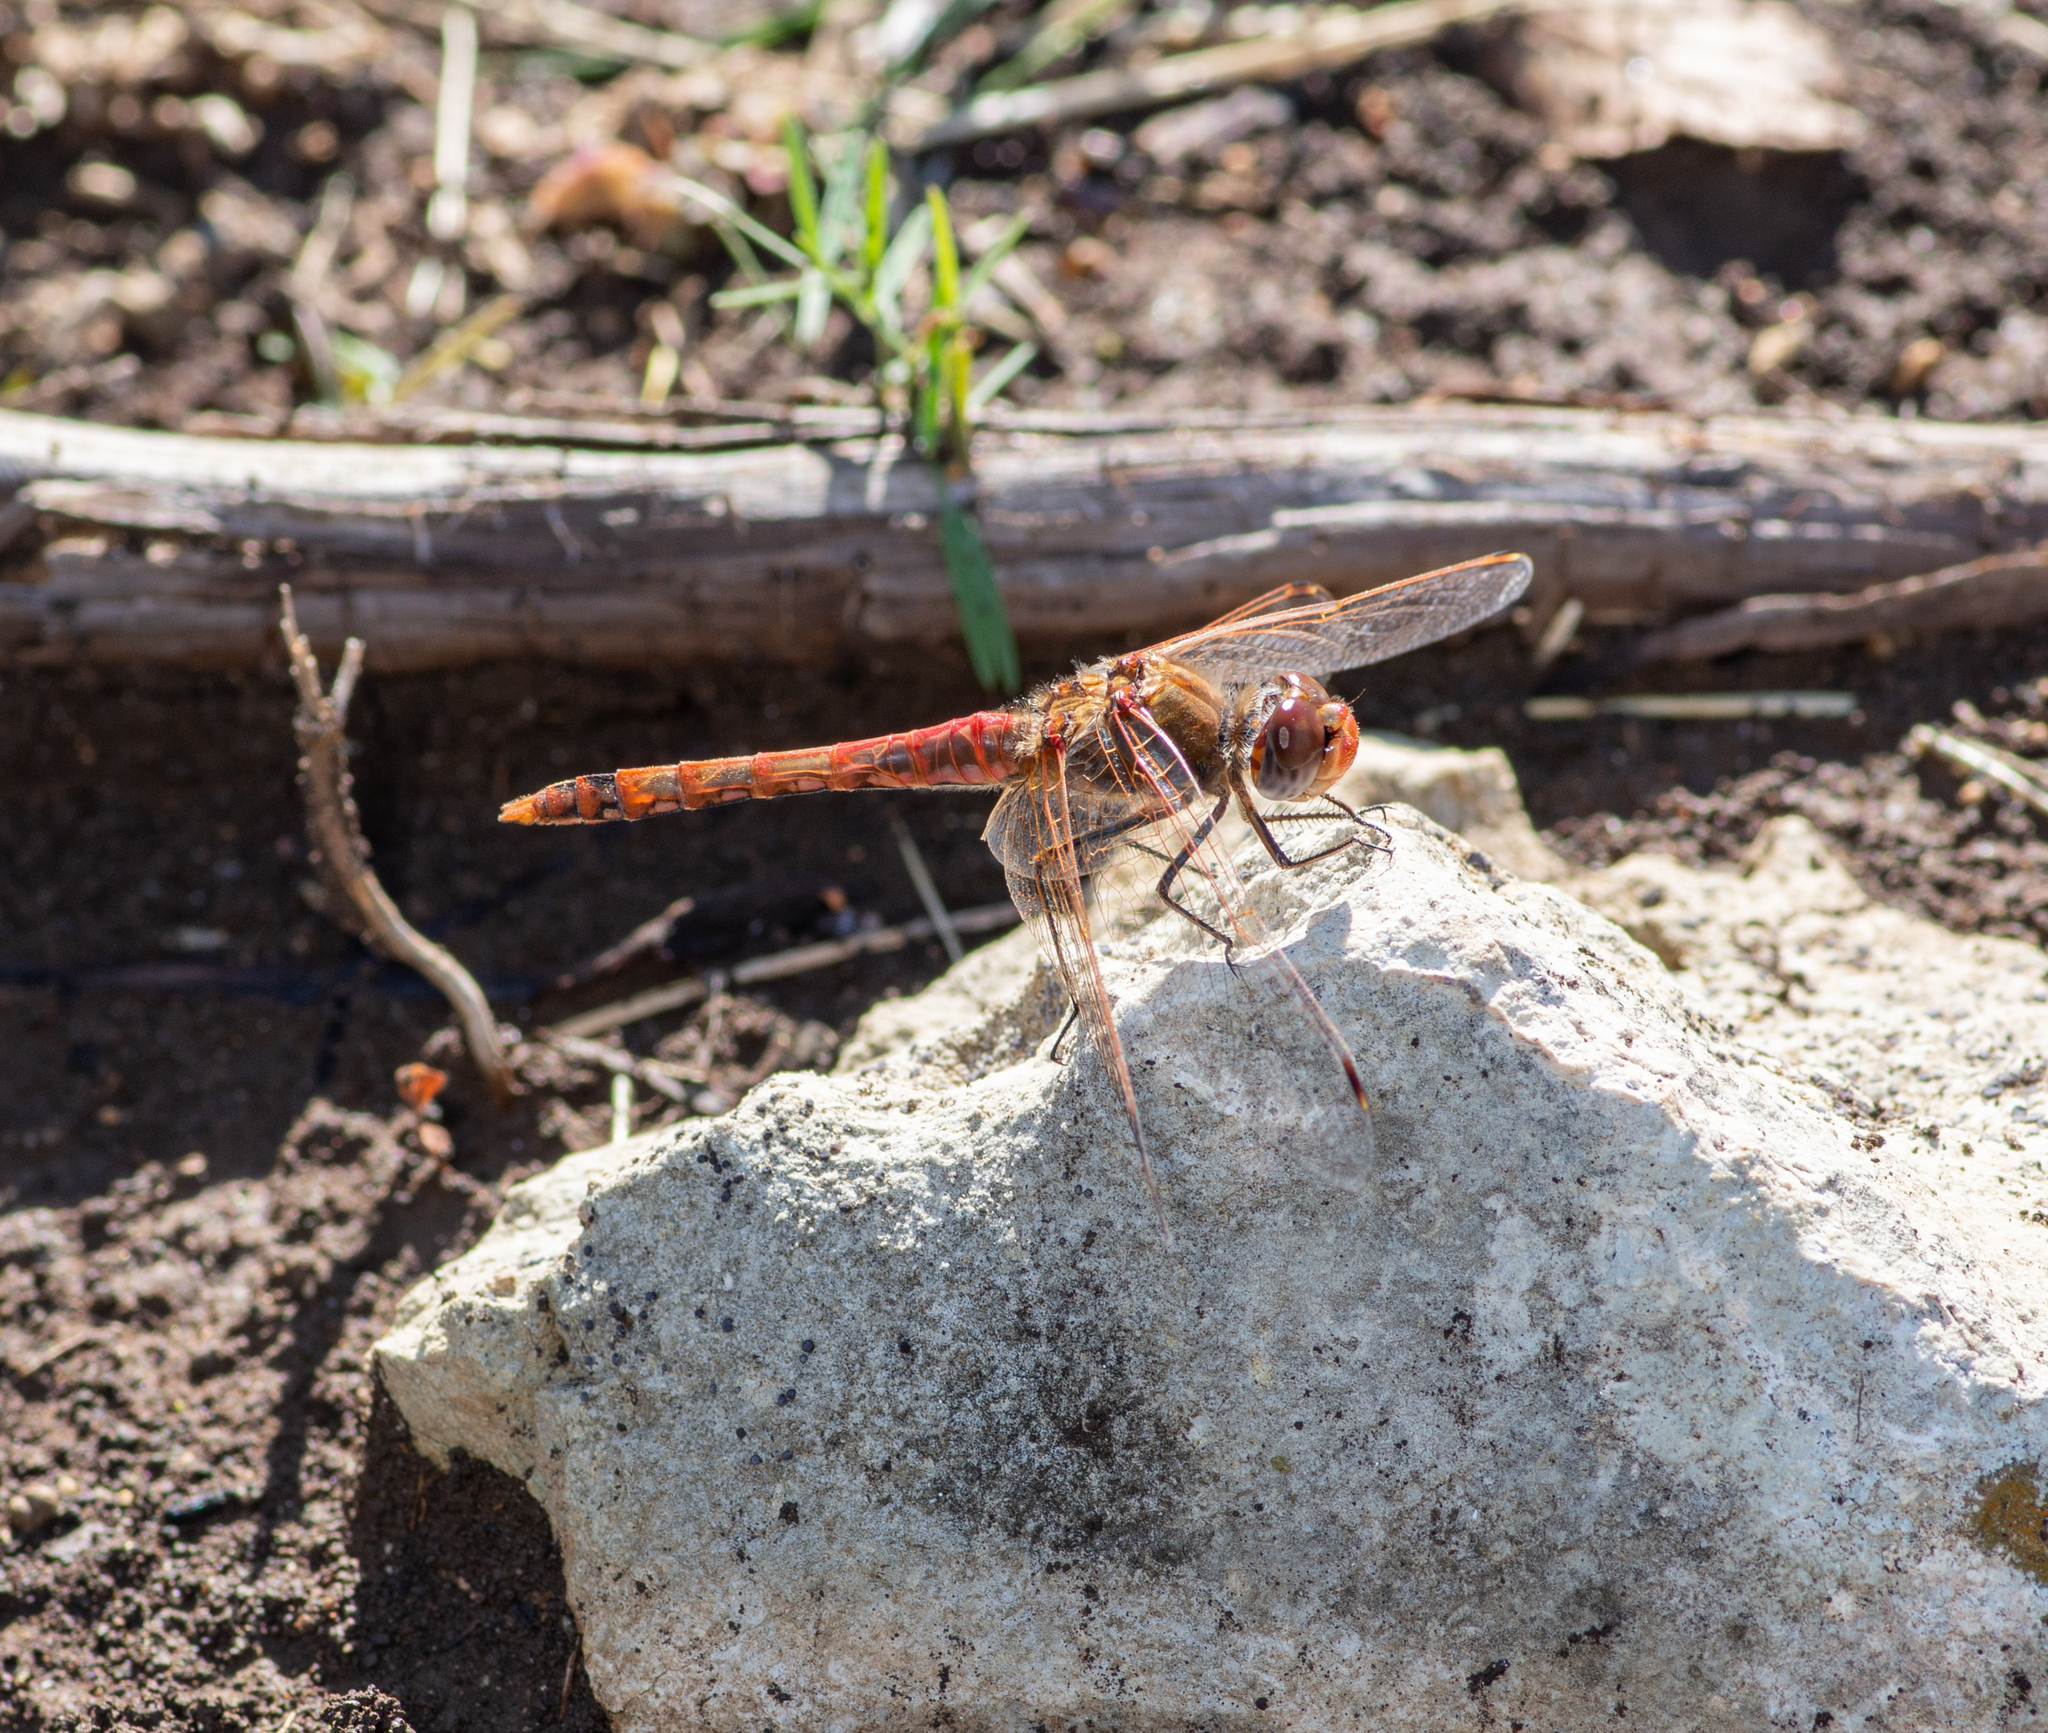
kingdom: Animalia
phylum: Arthropoda
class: Insecta
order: Odonata
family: Libellulidae
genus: Sympetrum
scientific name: Sympetrum corruptum
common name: Variegated meadowhawk
